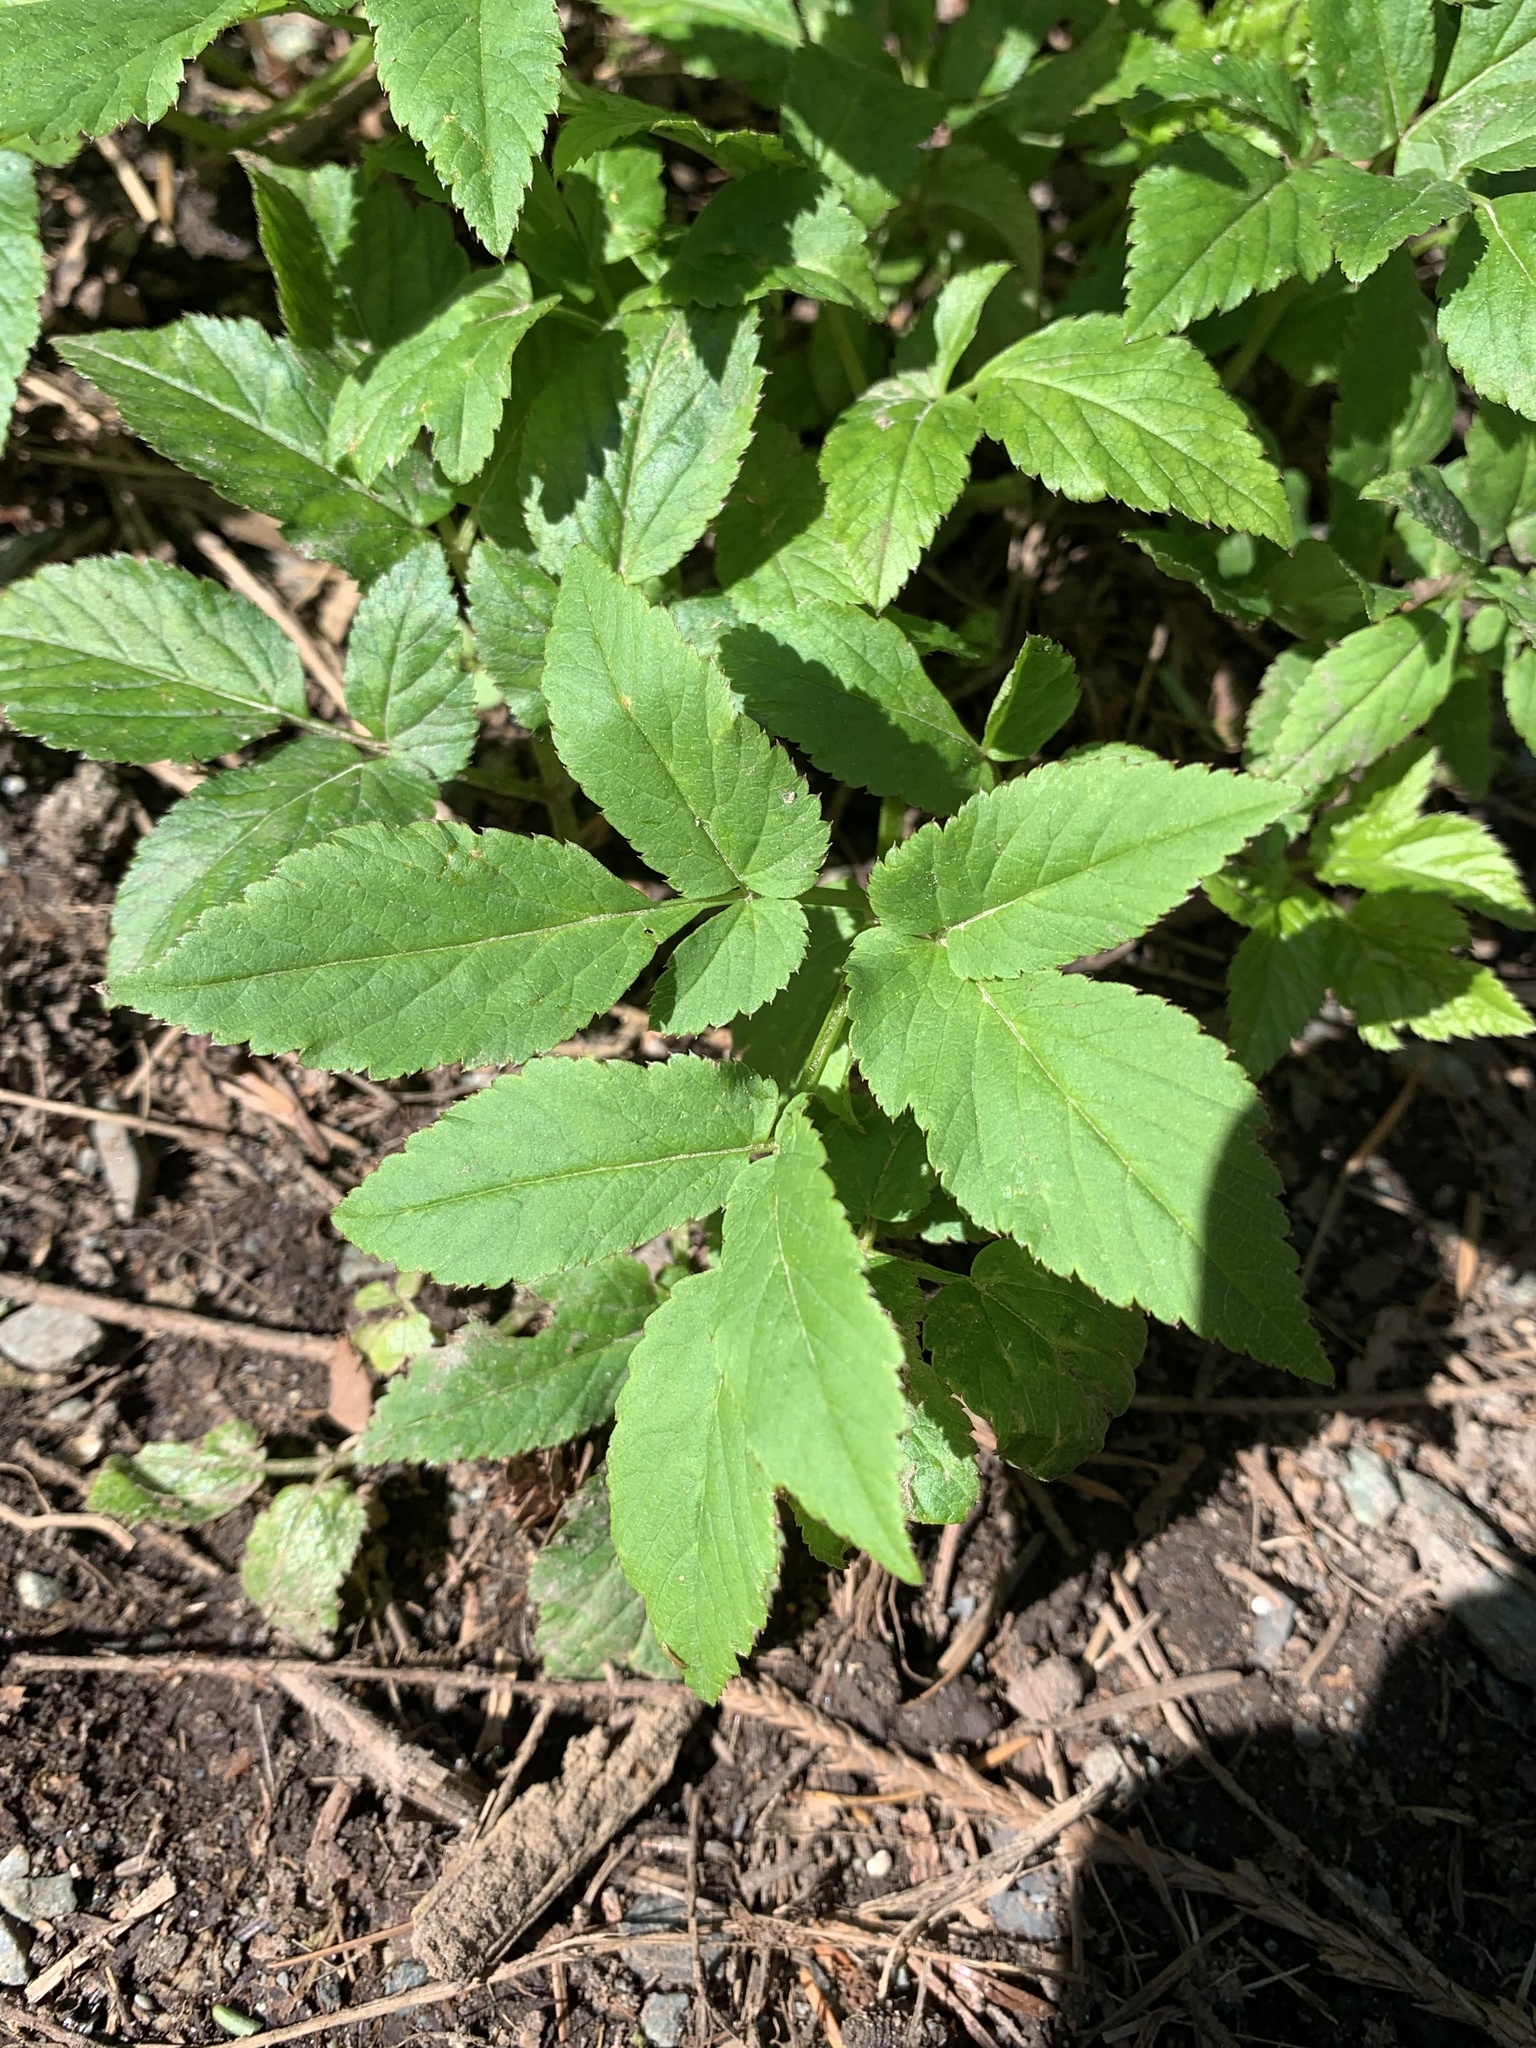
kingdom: Plantae
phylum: Tracheophyta
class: Magnoliopsida
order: Apiales
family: Apiaceae
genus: Aegopodium
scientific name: Aegopodium podagraria
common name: Ground-elder
